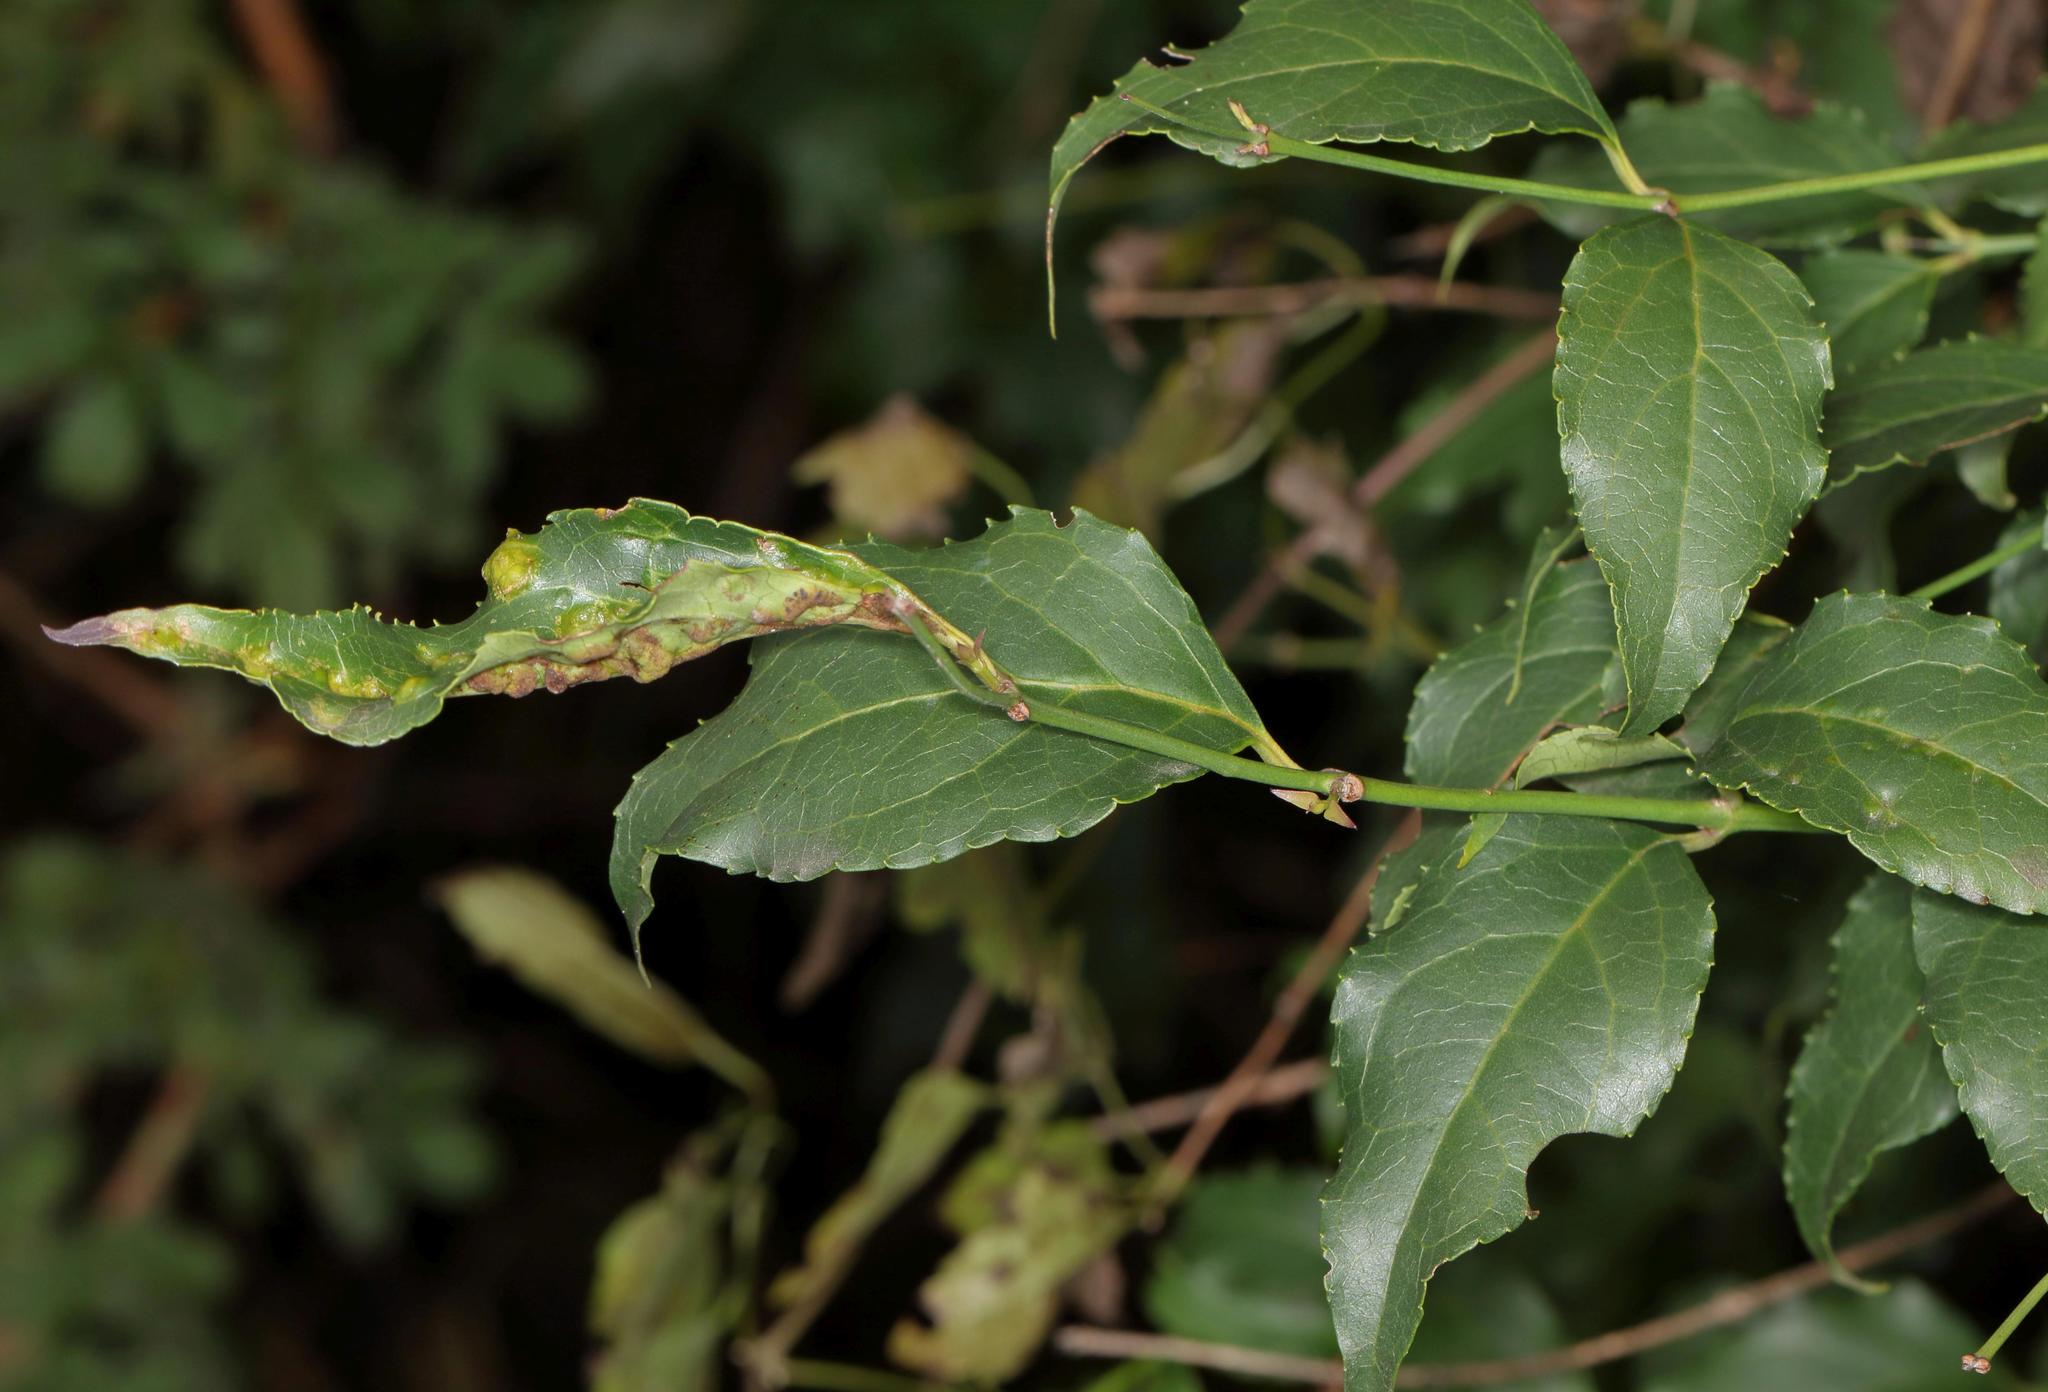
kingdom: Plantae
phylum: Tracheophyta
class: Magnoliopsida
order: Lamiales
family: Stilbaceae
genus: Halleria
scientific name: Halleria lucida
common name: Tree fuschia
